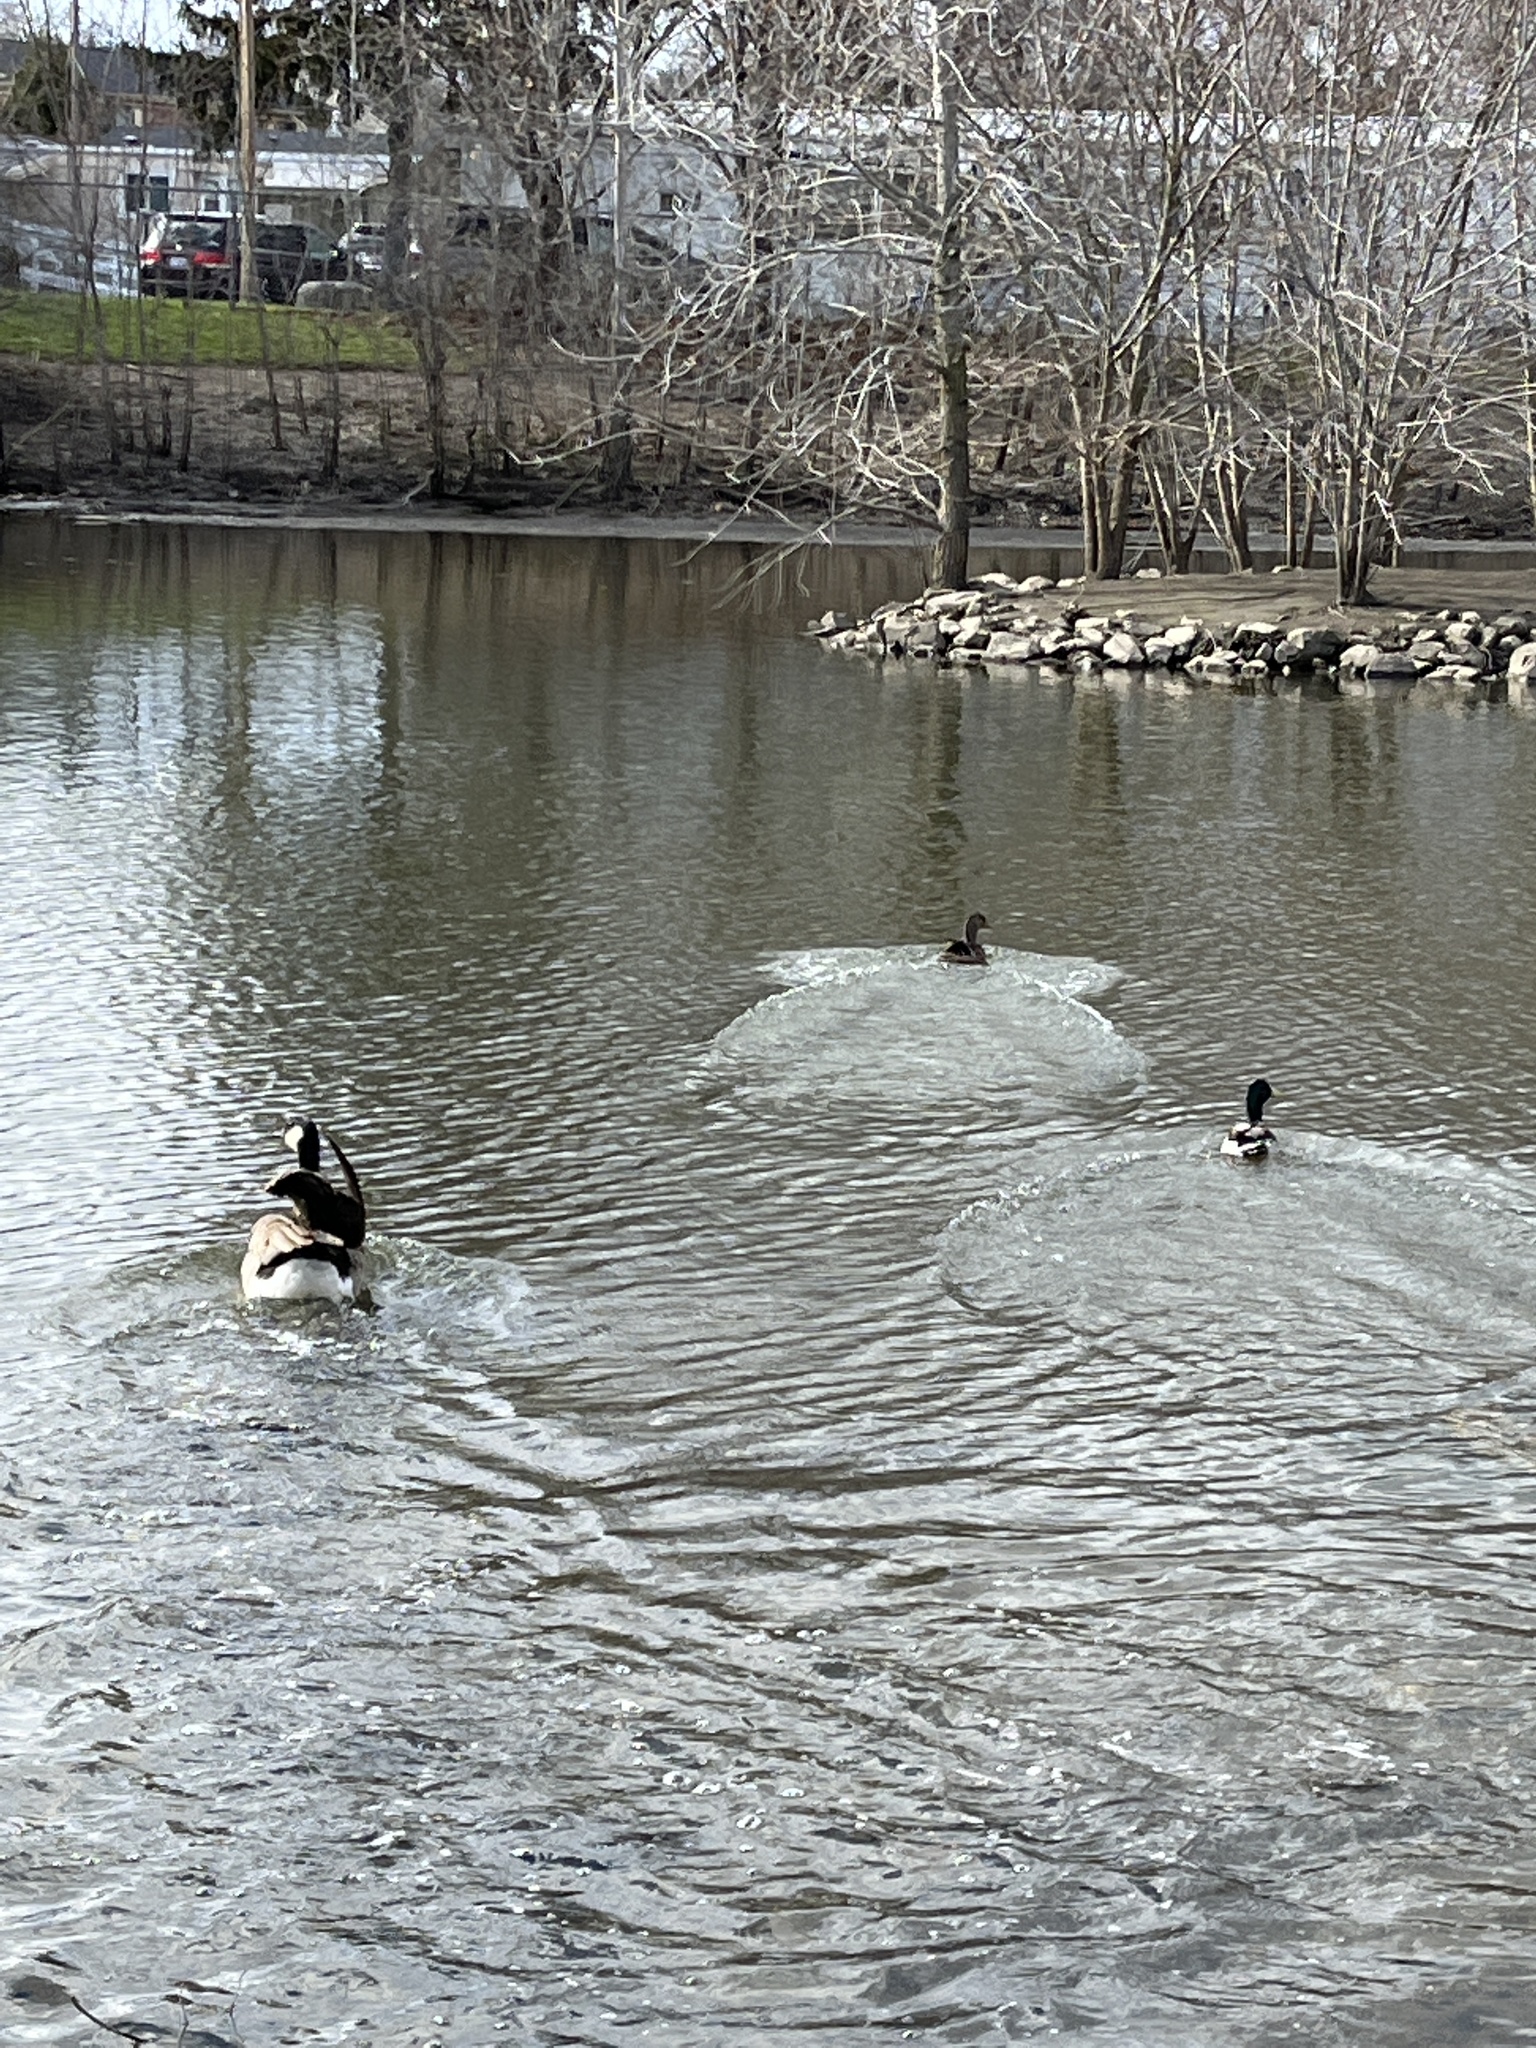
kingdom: Animalia
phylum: Chordata
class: Aves
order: Anseriformes
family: Anatidae
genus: Anas
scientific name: Anas platyrhynchos
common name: Mallard
